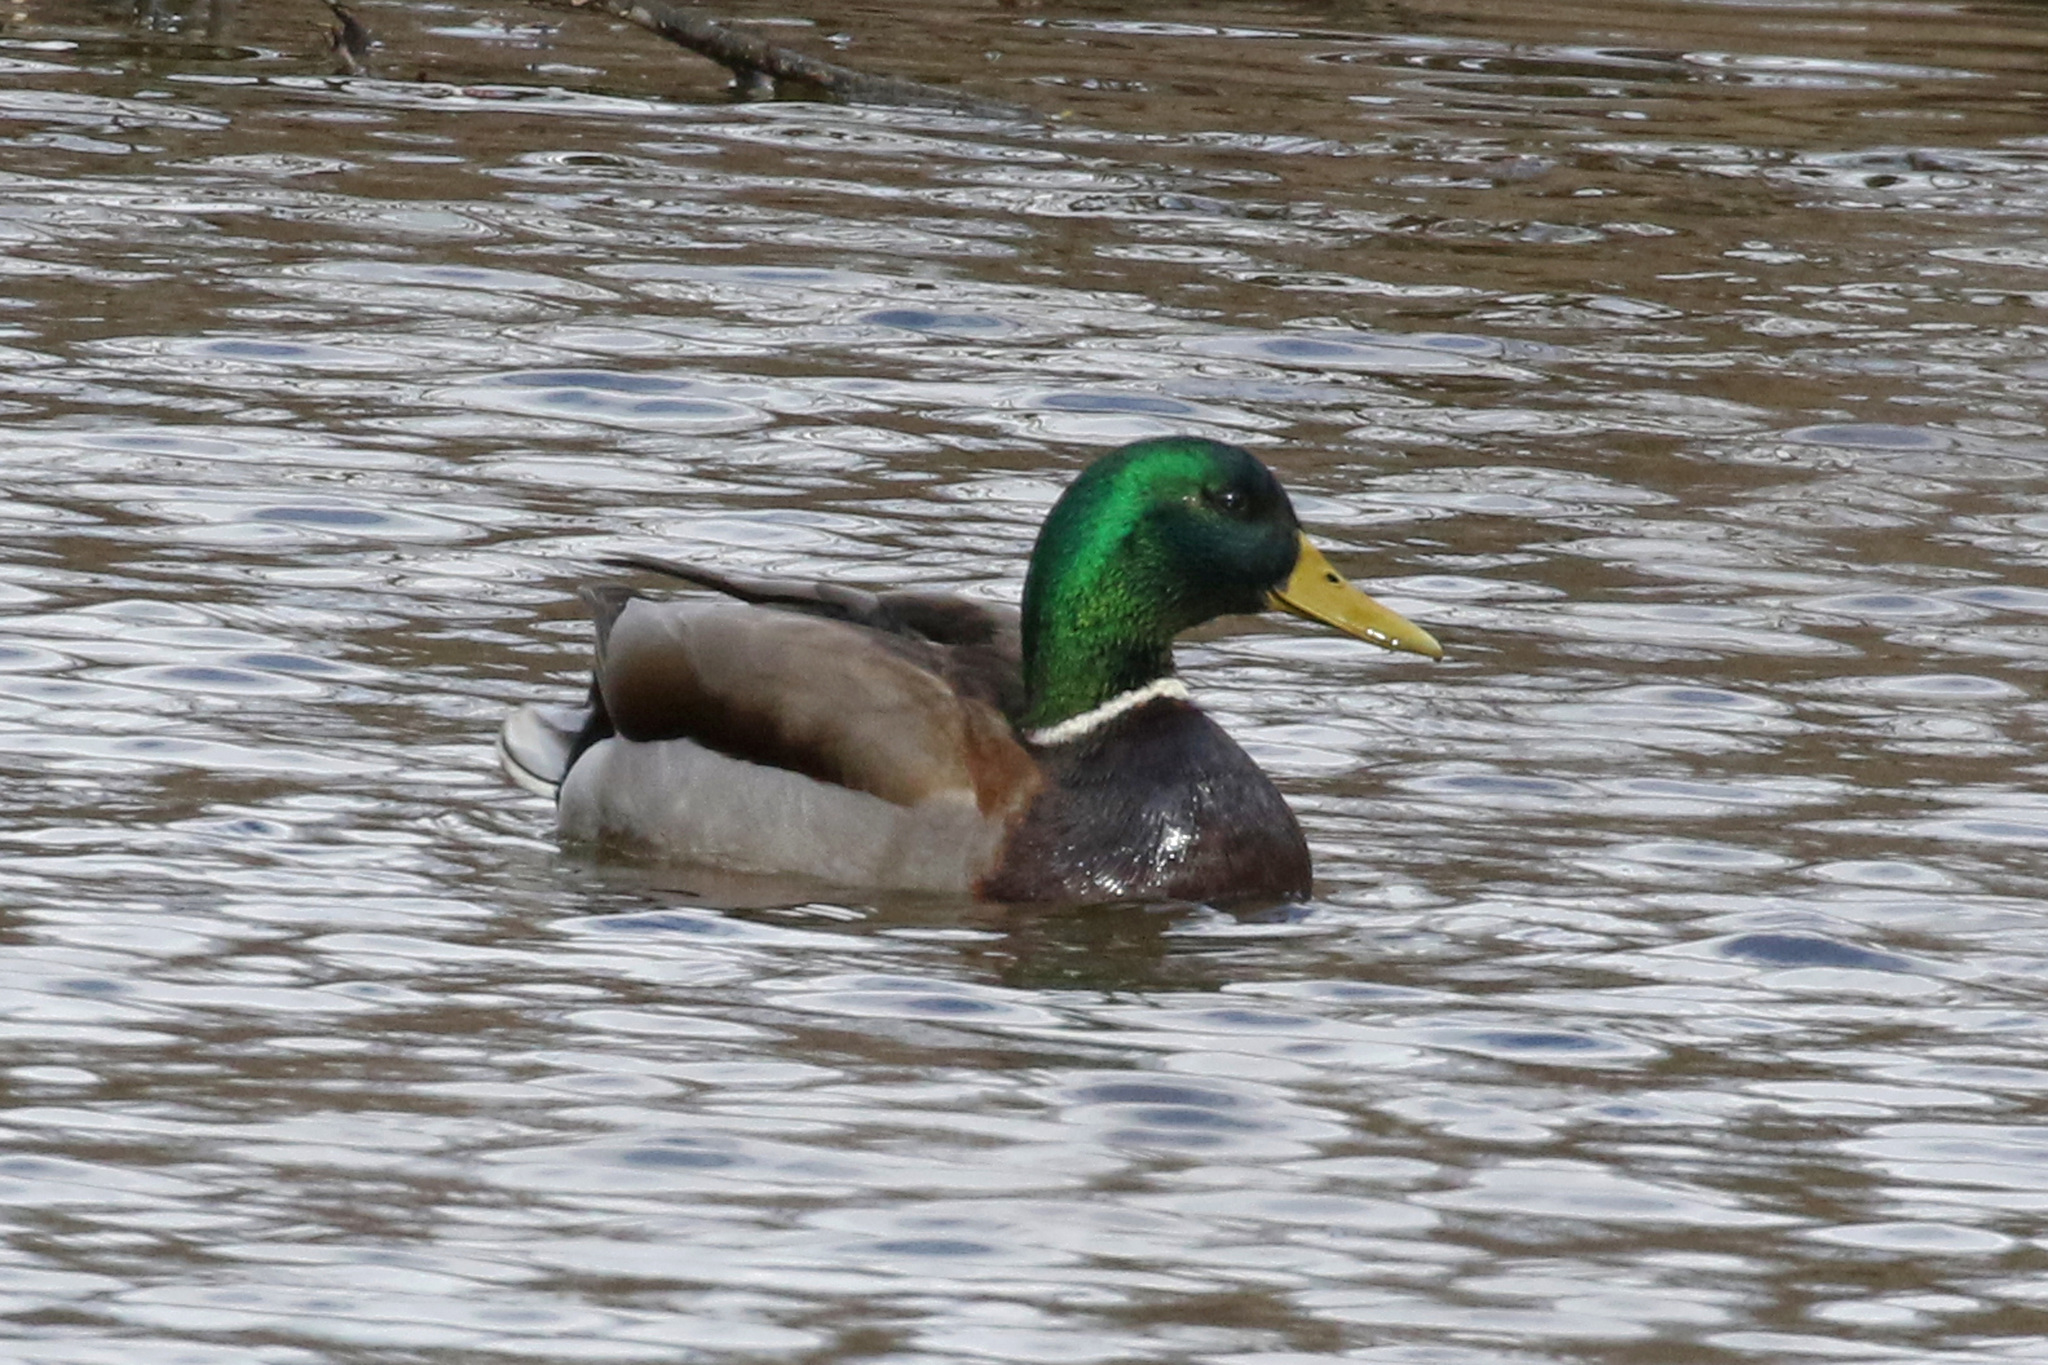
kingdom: Animalia
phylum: Chordata
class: Aves
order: Anseriformes
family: Anatidae
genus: Anas
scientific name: Anas platyrhynchos
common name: Mallard
